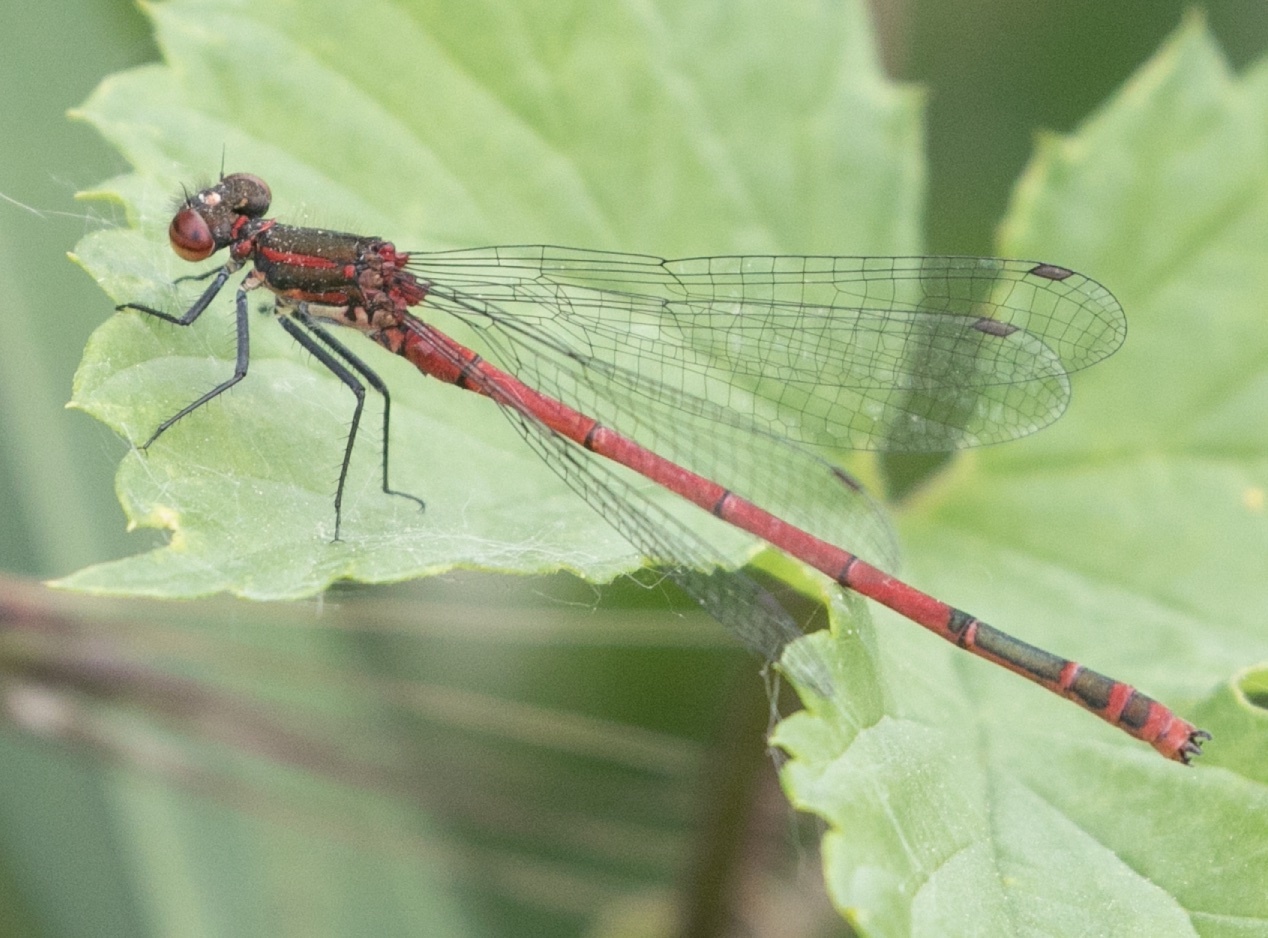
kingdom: Animalia
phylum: Arthropoda
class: Insecta
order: Odonata
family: Coenagrionidae
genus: Pyrrhosoma
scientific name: Pyrrhosoma nymphula
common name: Large red damsel
